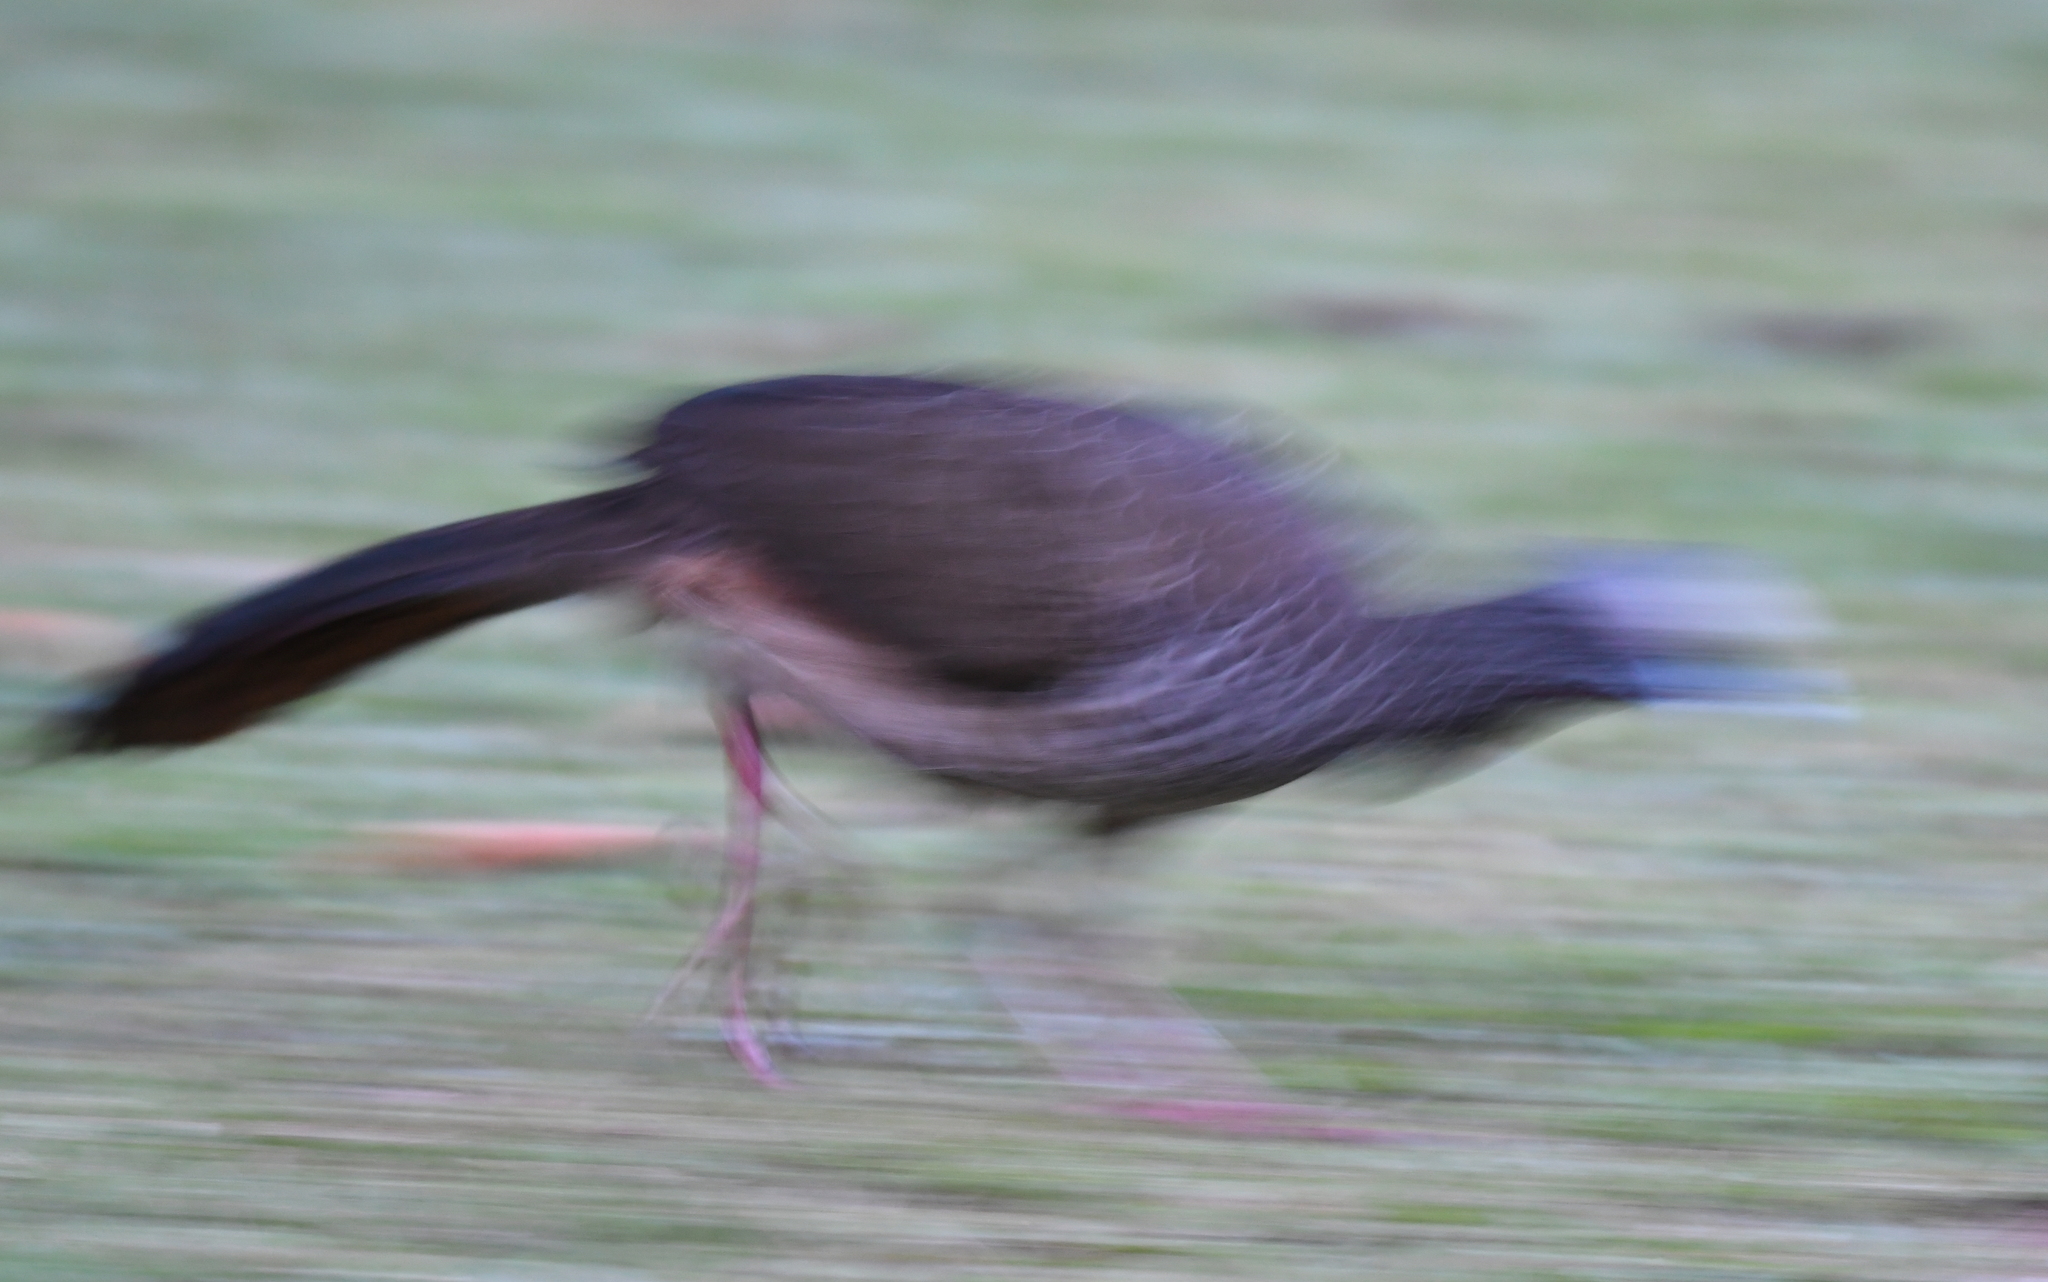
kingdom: Animalia
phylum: Chordata
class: Aves
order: Galliformes
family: Cracidae
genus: Ortalis
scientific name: Ortalis columbiana
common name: Colombian chachalaca
